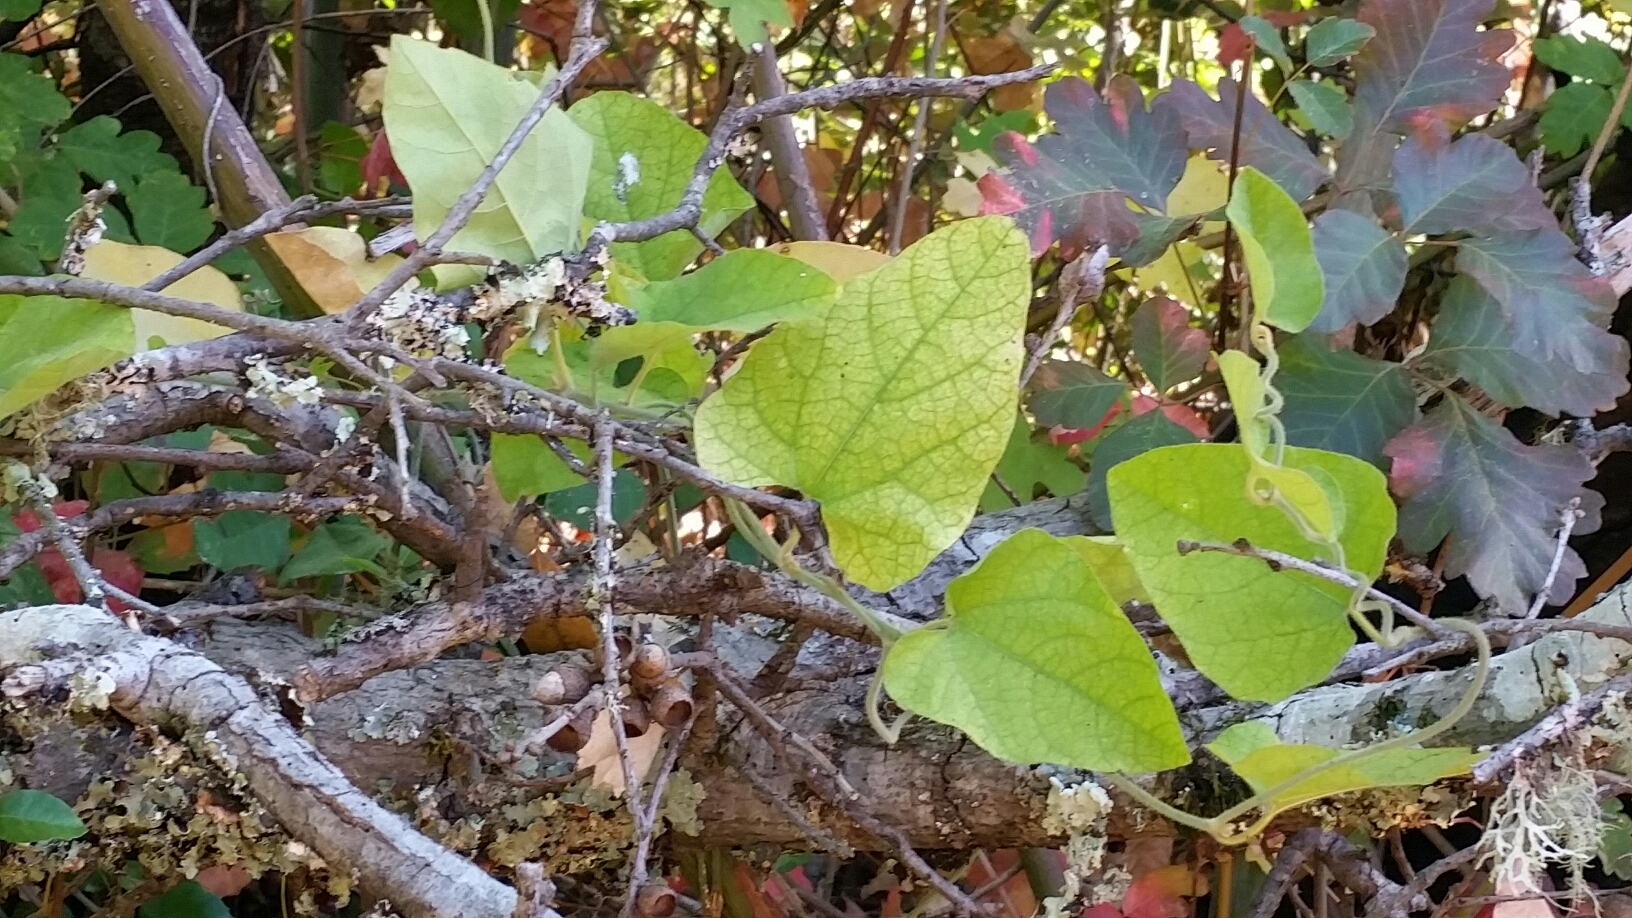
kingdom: Plantae
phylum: Tracheophyta
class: Magnoliopsida
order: Piperales
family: Aristolochiaceae
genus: Isotrema
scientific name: Isotrema californicum
